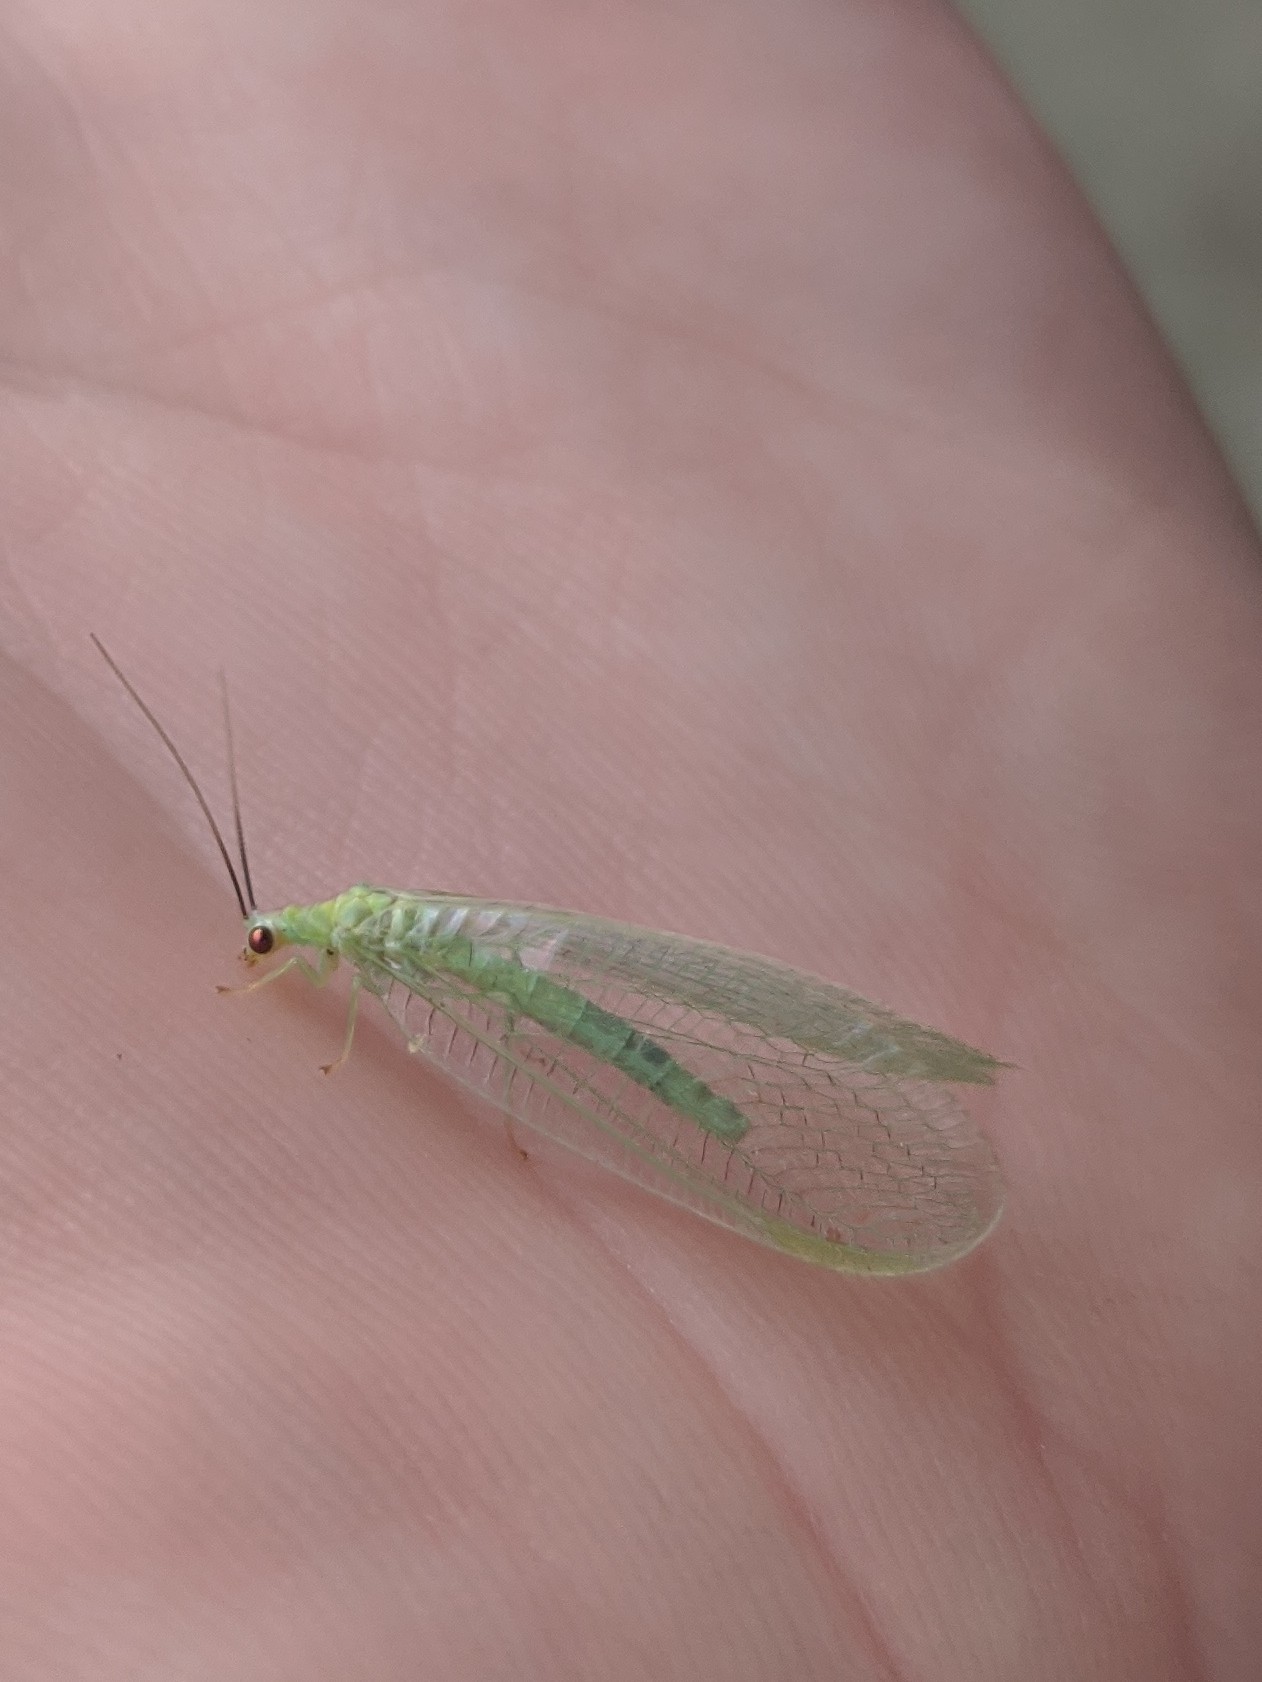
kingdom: Animalia
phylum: Arthropoda
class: Insecta
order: Neuroptera
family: Chrysopidae
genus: Chrysopa
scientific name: Chrysopa nigricornis
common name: Black-horned green lacewing
